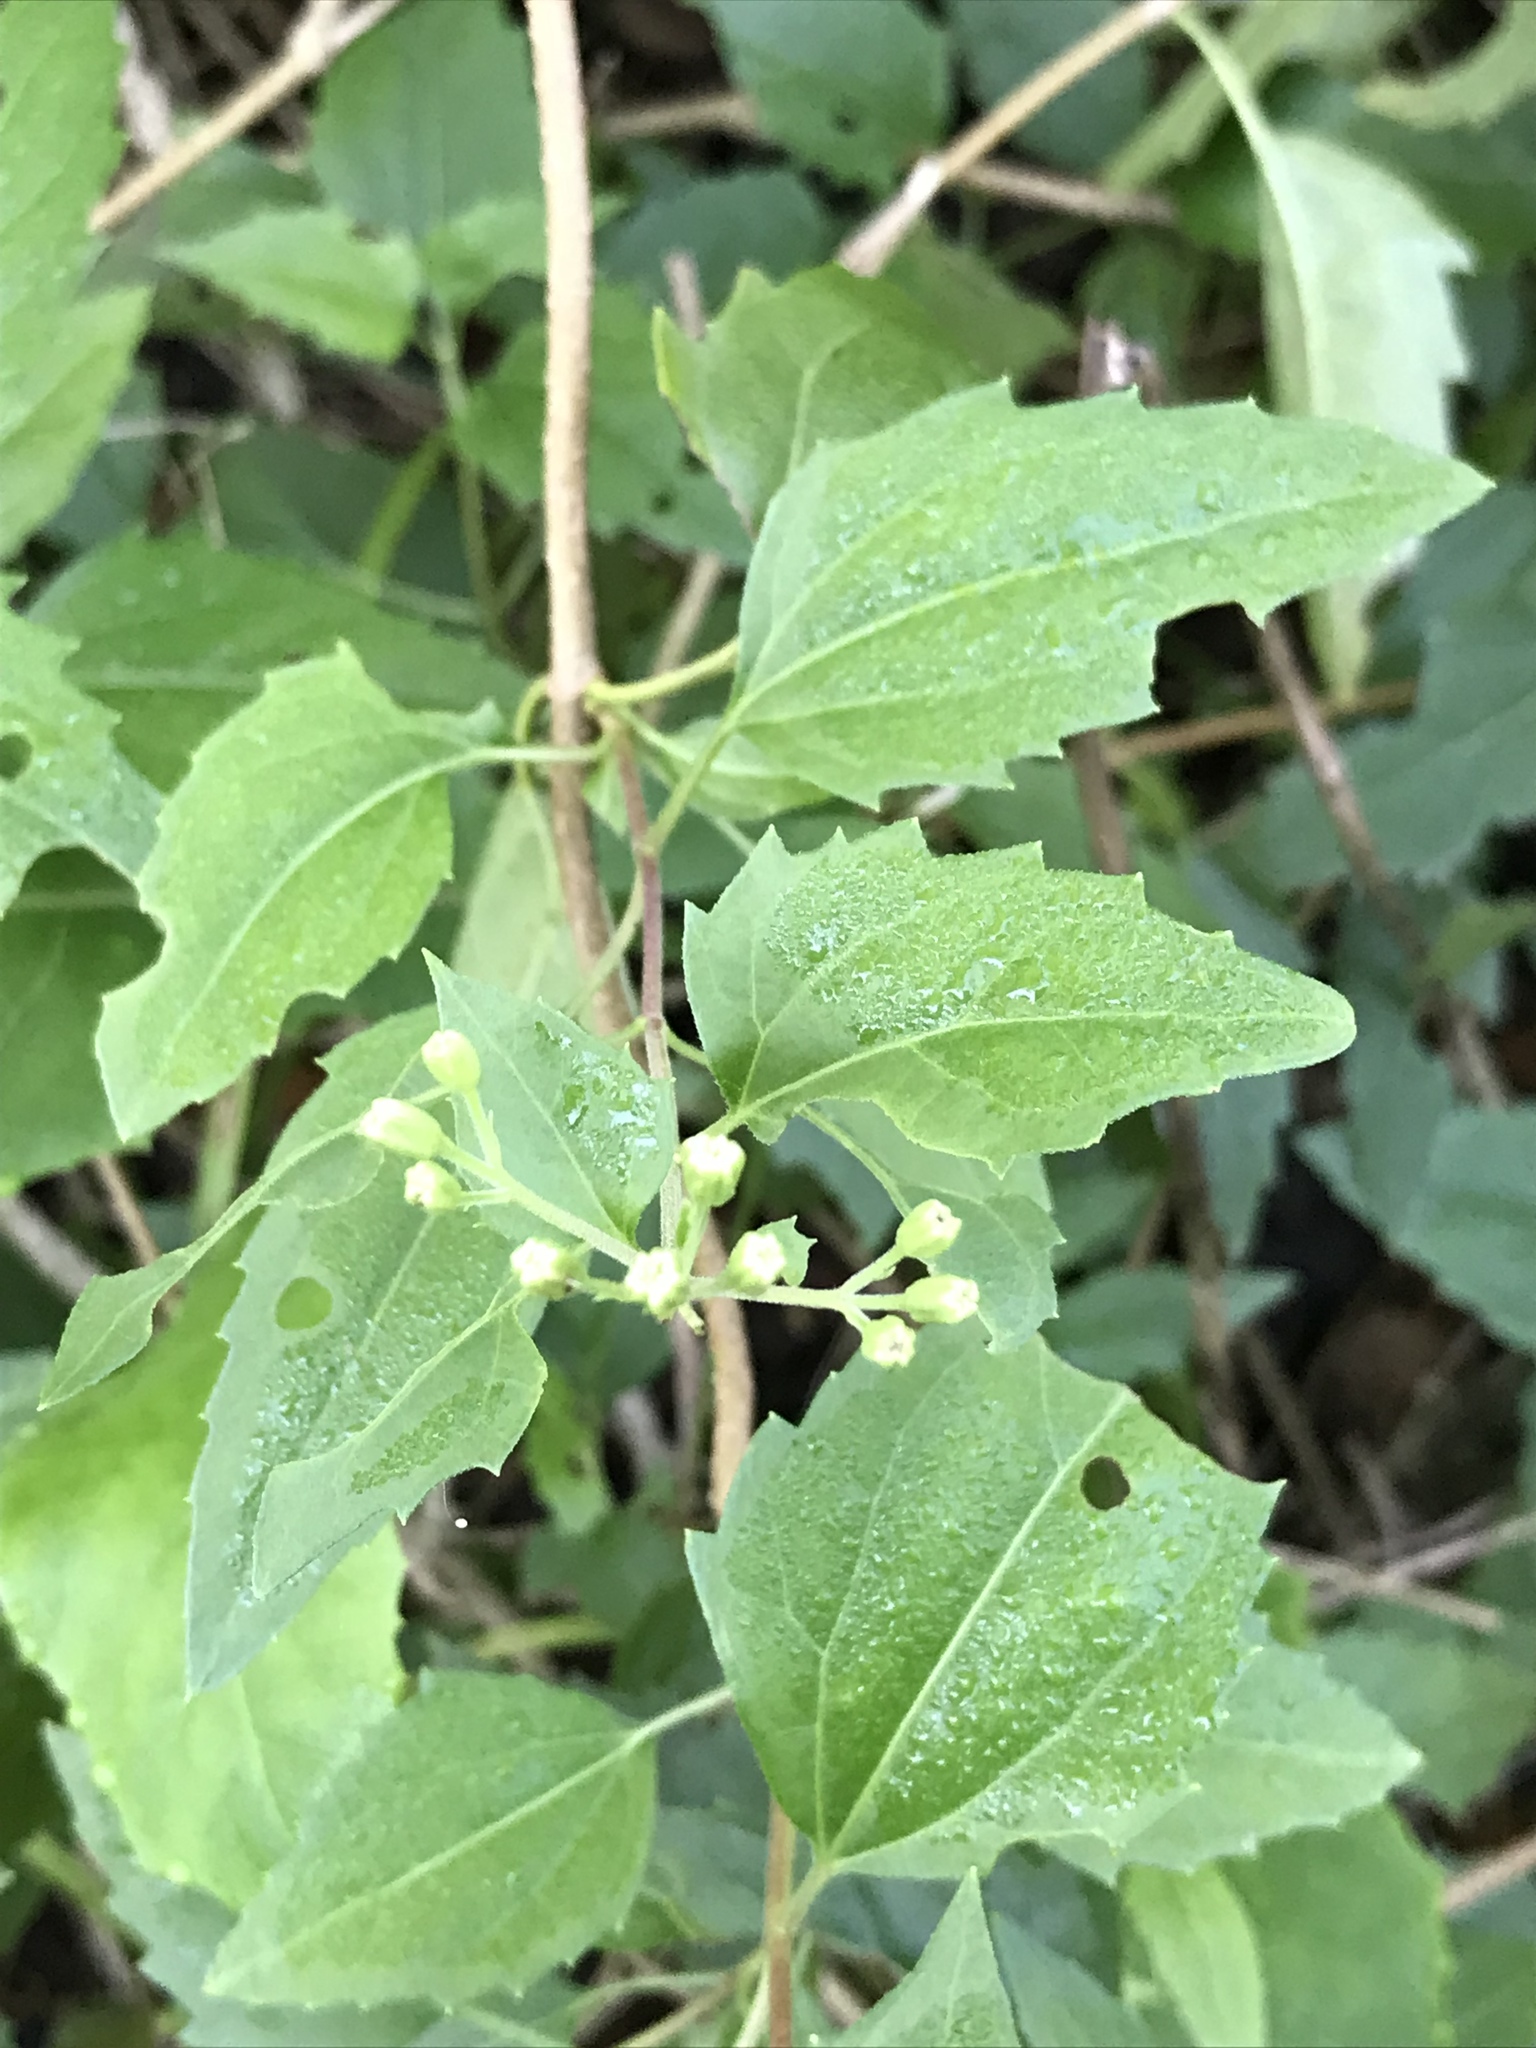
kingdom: Plantae
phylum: Tracheophyta
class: Magnoliopsida
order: Asterales
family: Asteraceae
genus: Ageratina
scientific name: Ageratina havanensis
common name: Havana snakeroot
